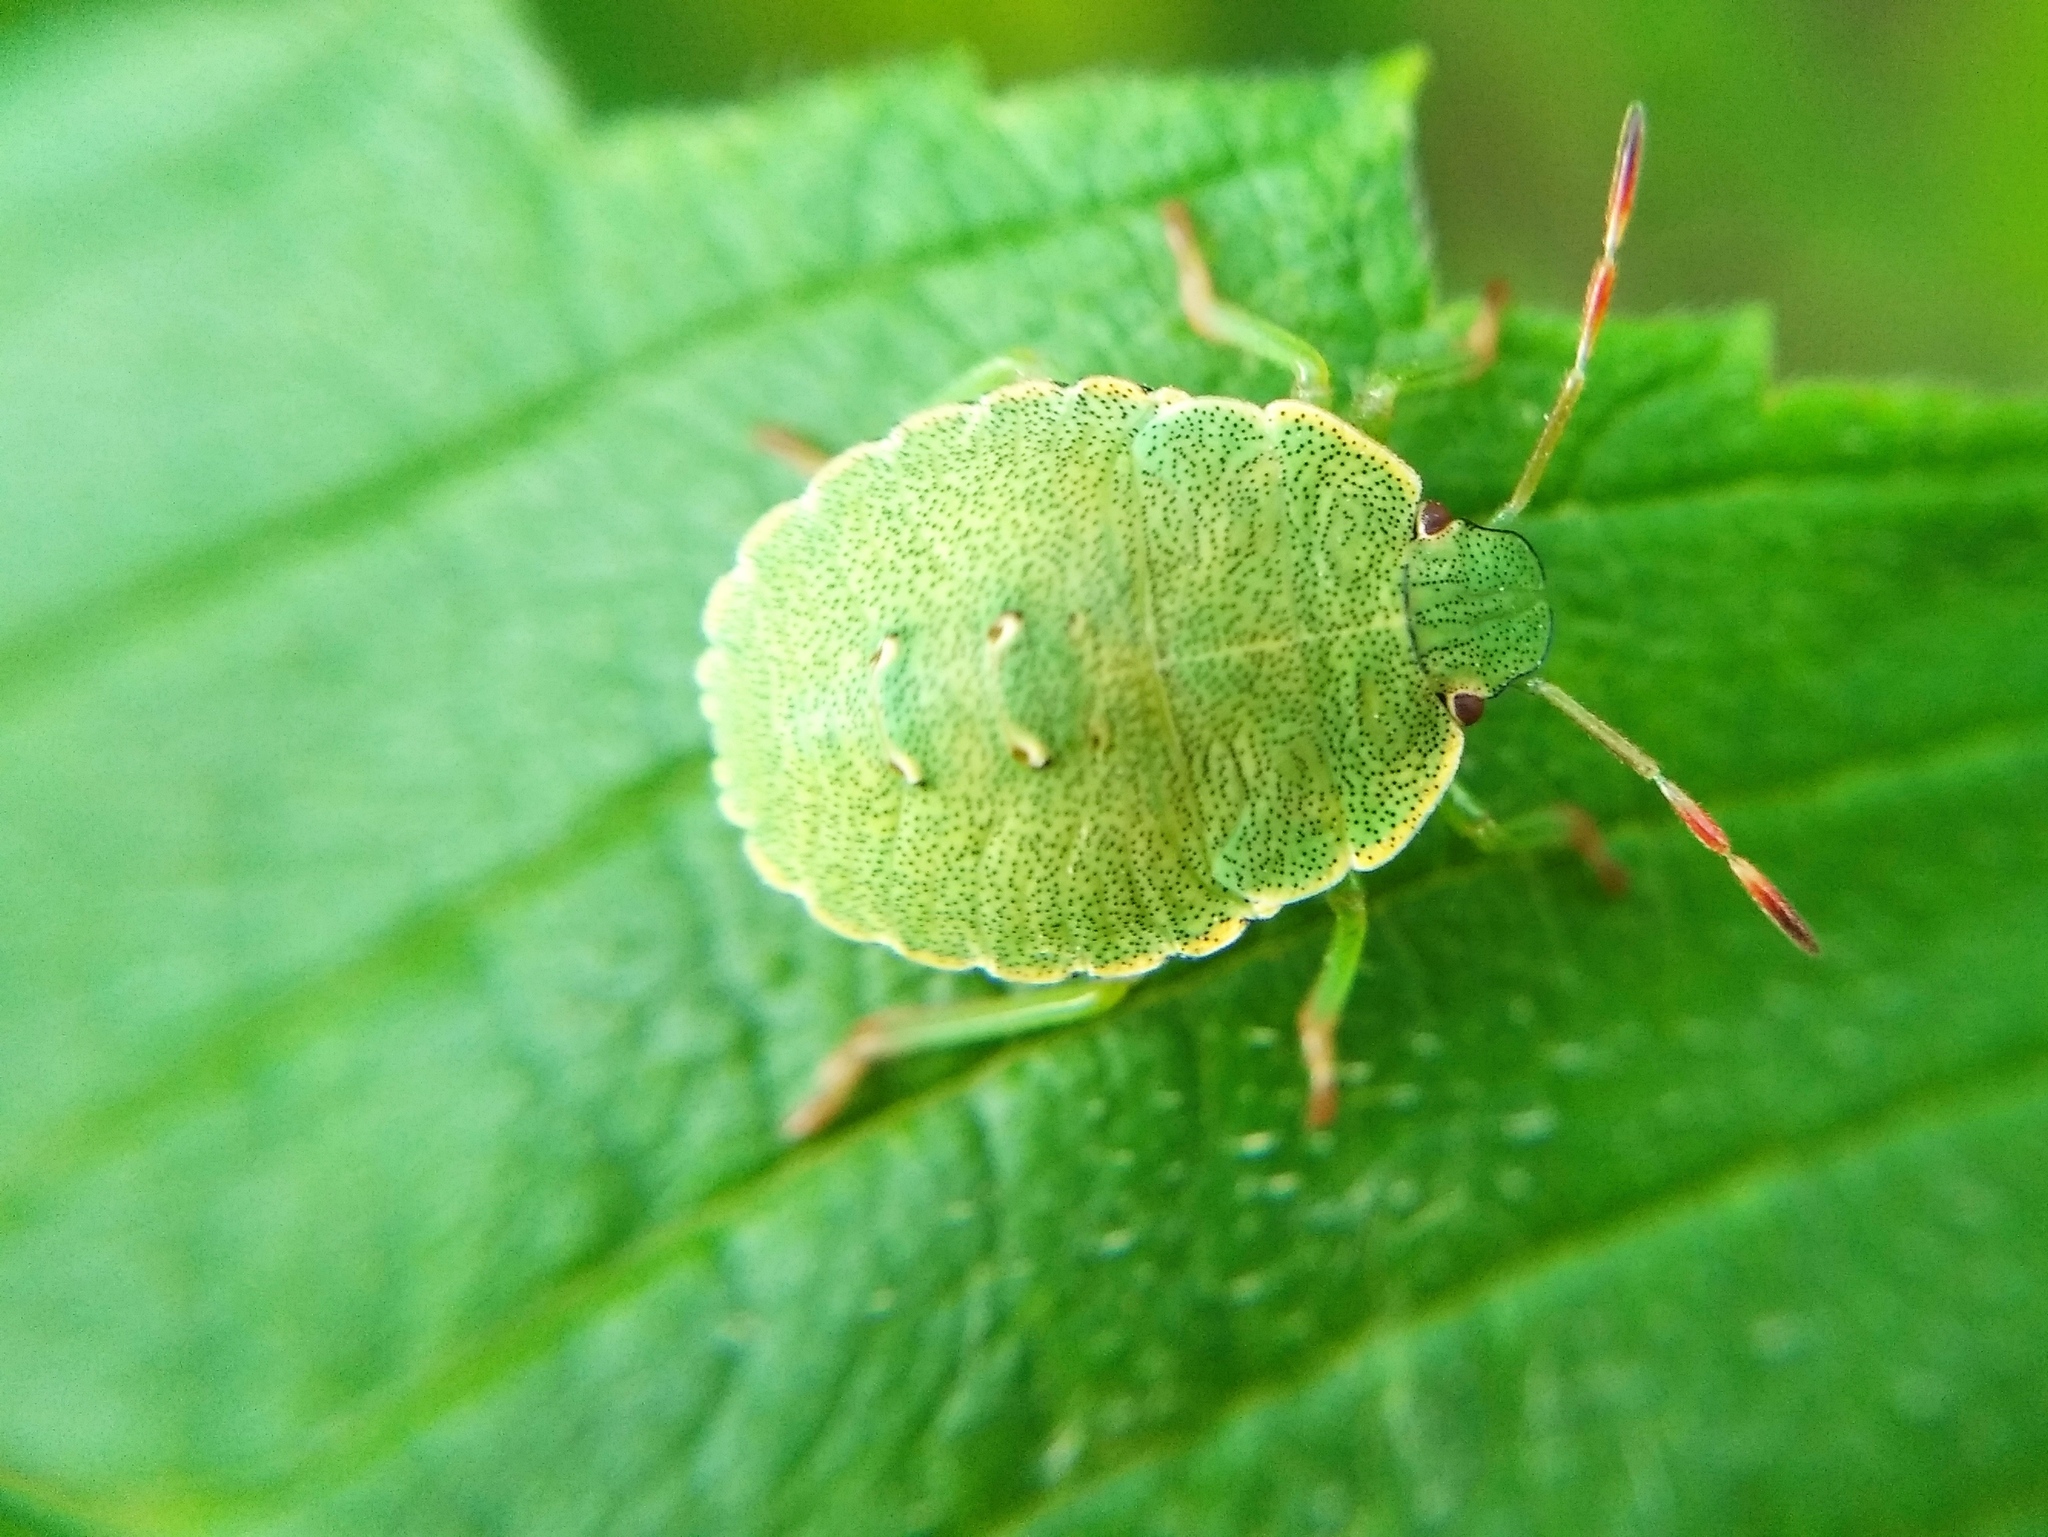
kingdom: Animalia
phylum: Arthropoda
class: Insecta
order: Hemiptera
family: Pentatomidae
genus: Palomena
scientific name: Palomena prasina
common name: Green shieldbug
